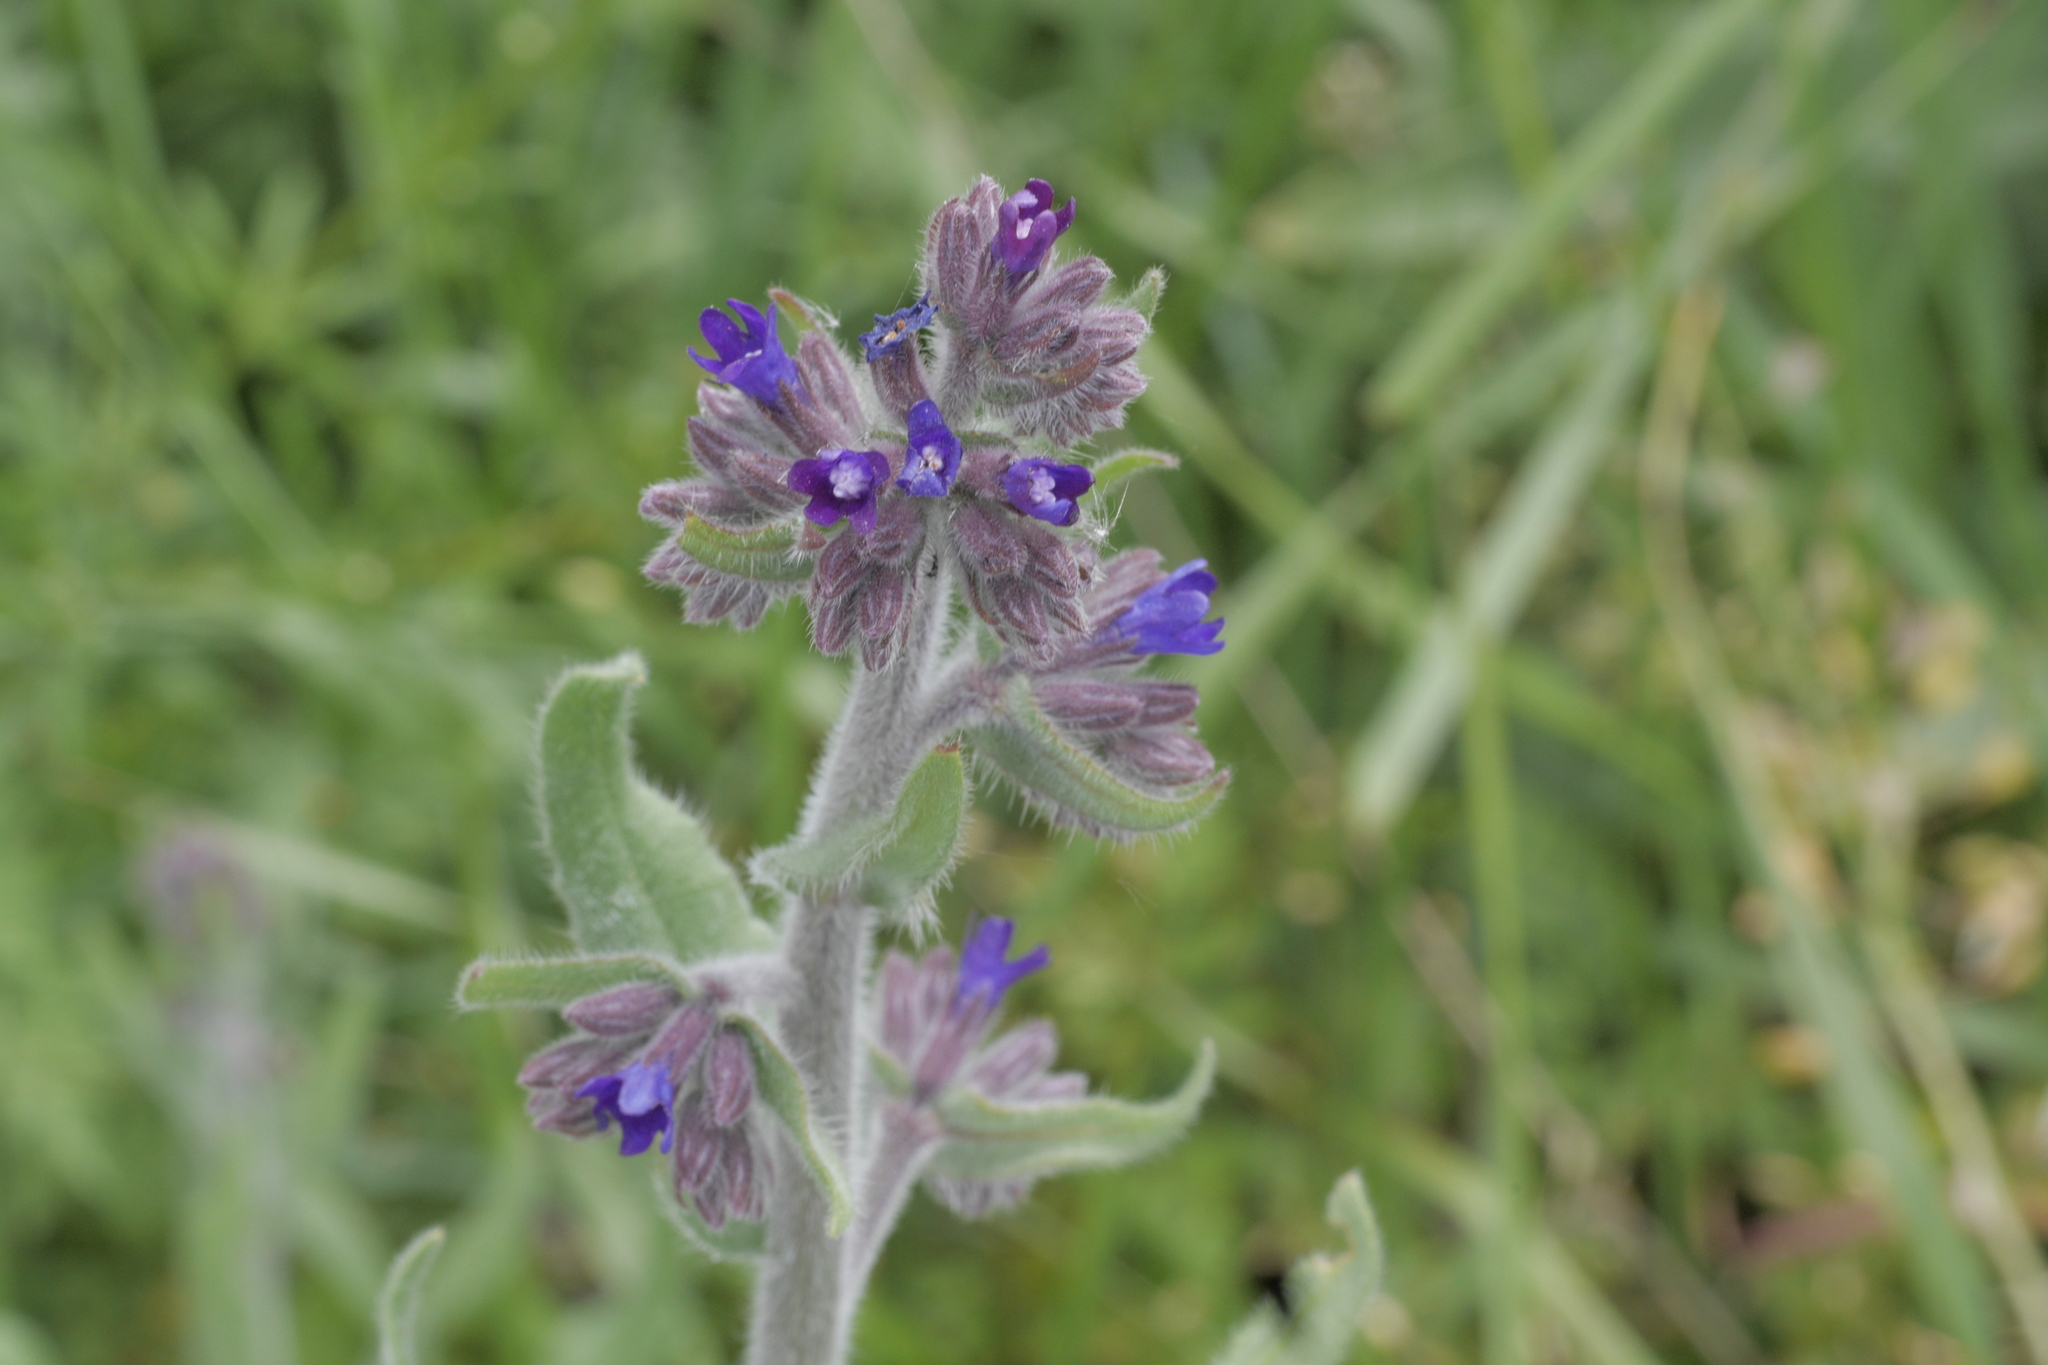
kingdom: Plantae
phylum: Tracheophyta
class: Magnoliopsida
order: Boraginales
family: Boraginaceae
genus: Anchusa
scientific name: Anchusa officinalis
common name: Alkanet
